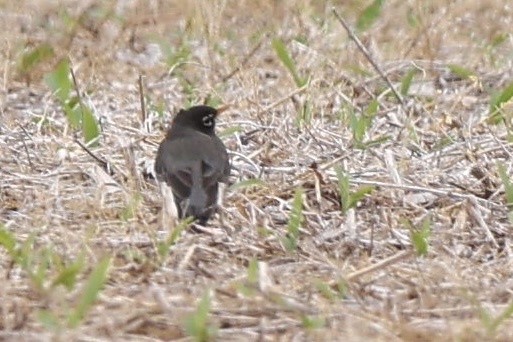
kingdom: Animalia
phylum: Chordata
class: Aves
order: Passeriformes
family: Turdidae
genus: Turdus
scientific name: Turdus migratorius
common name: American robin
